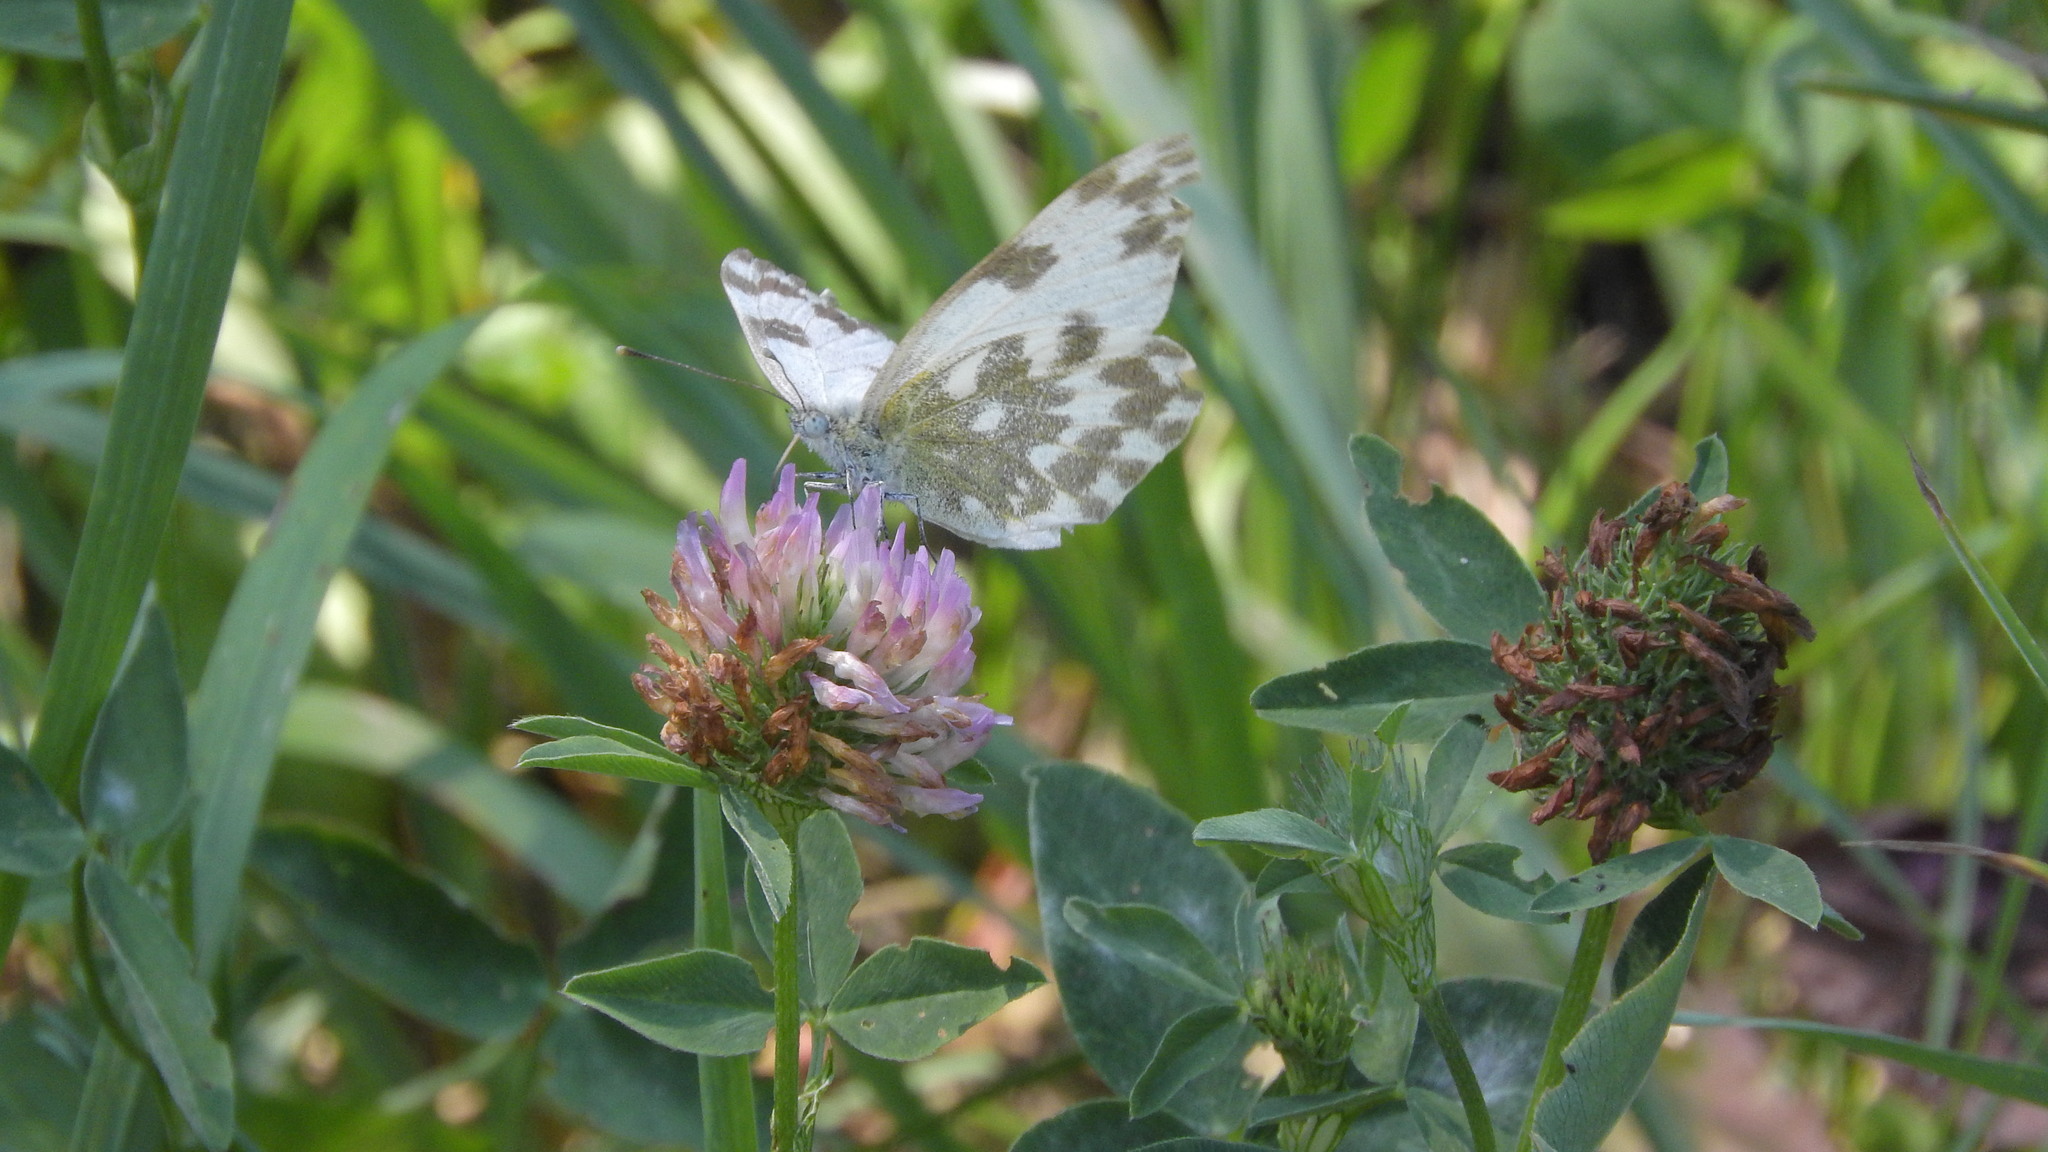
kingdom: Animalia
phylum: Arthropoda
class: Insecta
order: Lepidoptera
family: Pieridae
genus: Pontia
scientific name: Pontia edusa
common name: Eastern bath white
